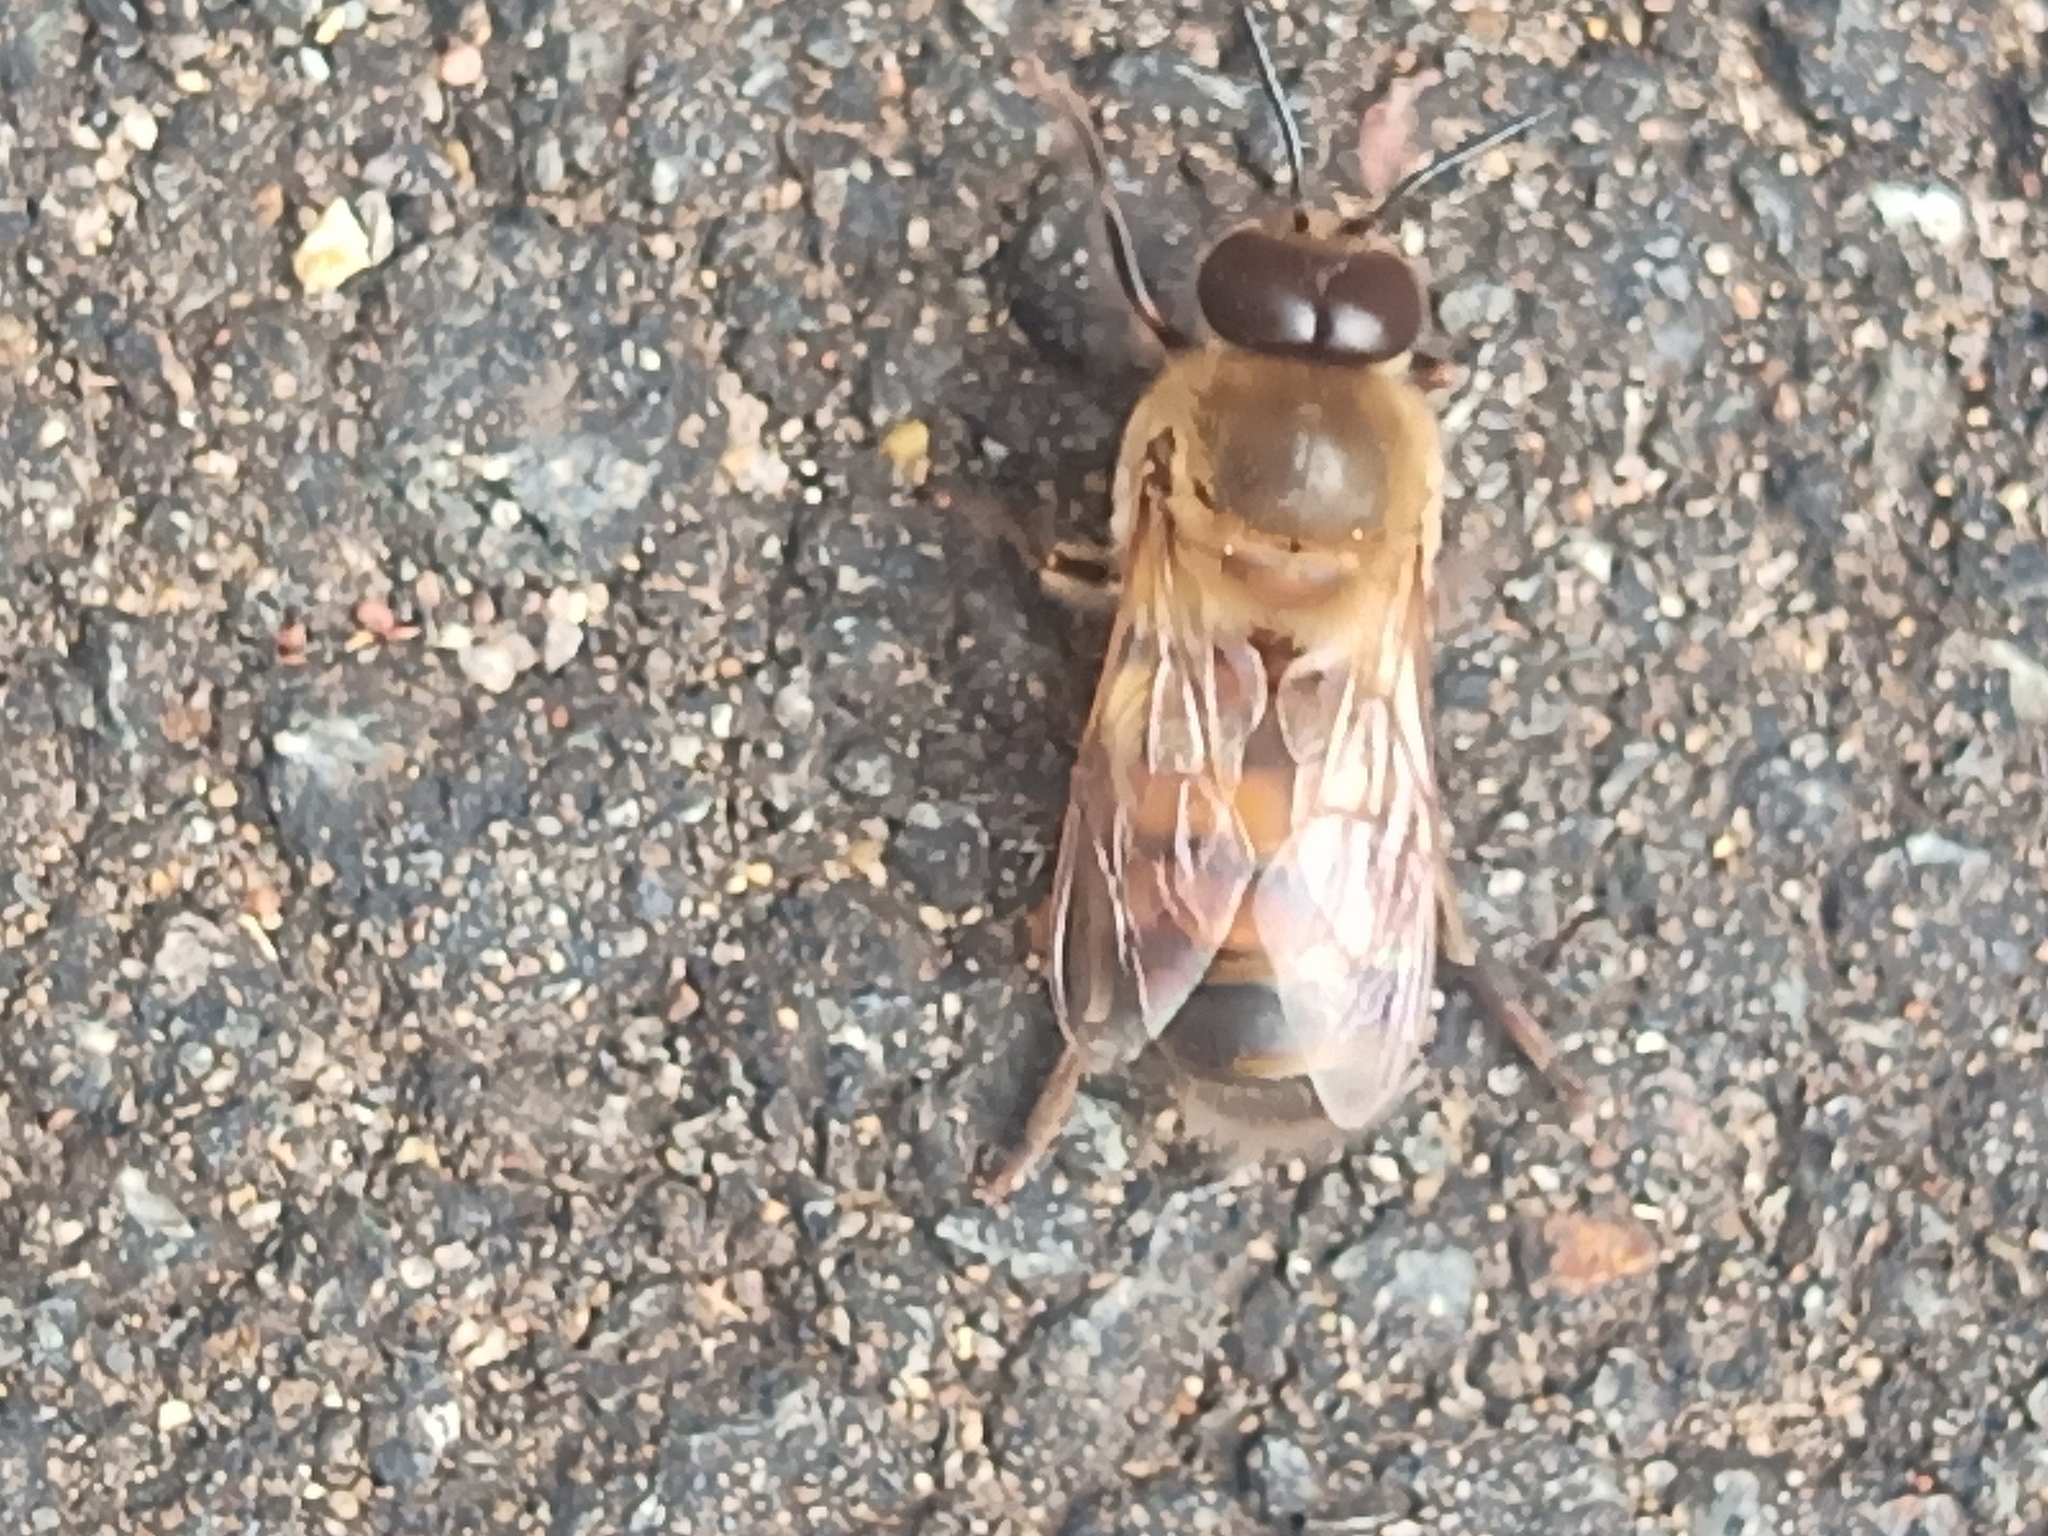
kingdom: Animalia
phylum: Arthropoda
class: Insecta
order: Hymenoptera
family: Apidae
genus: Apis
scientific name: Apis mellifera
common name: Honey bee
